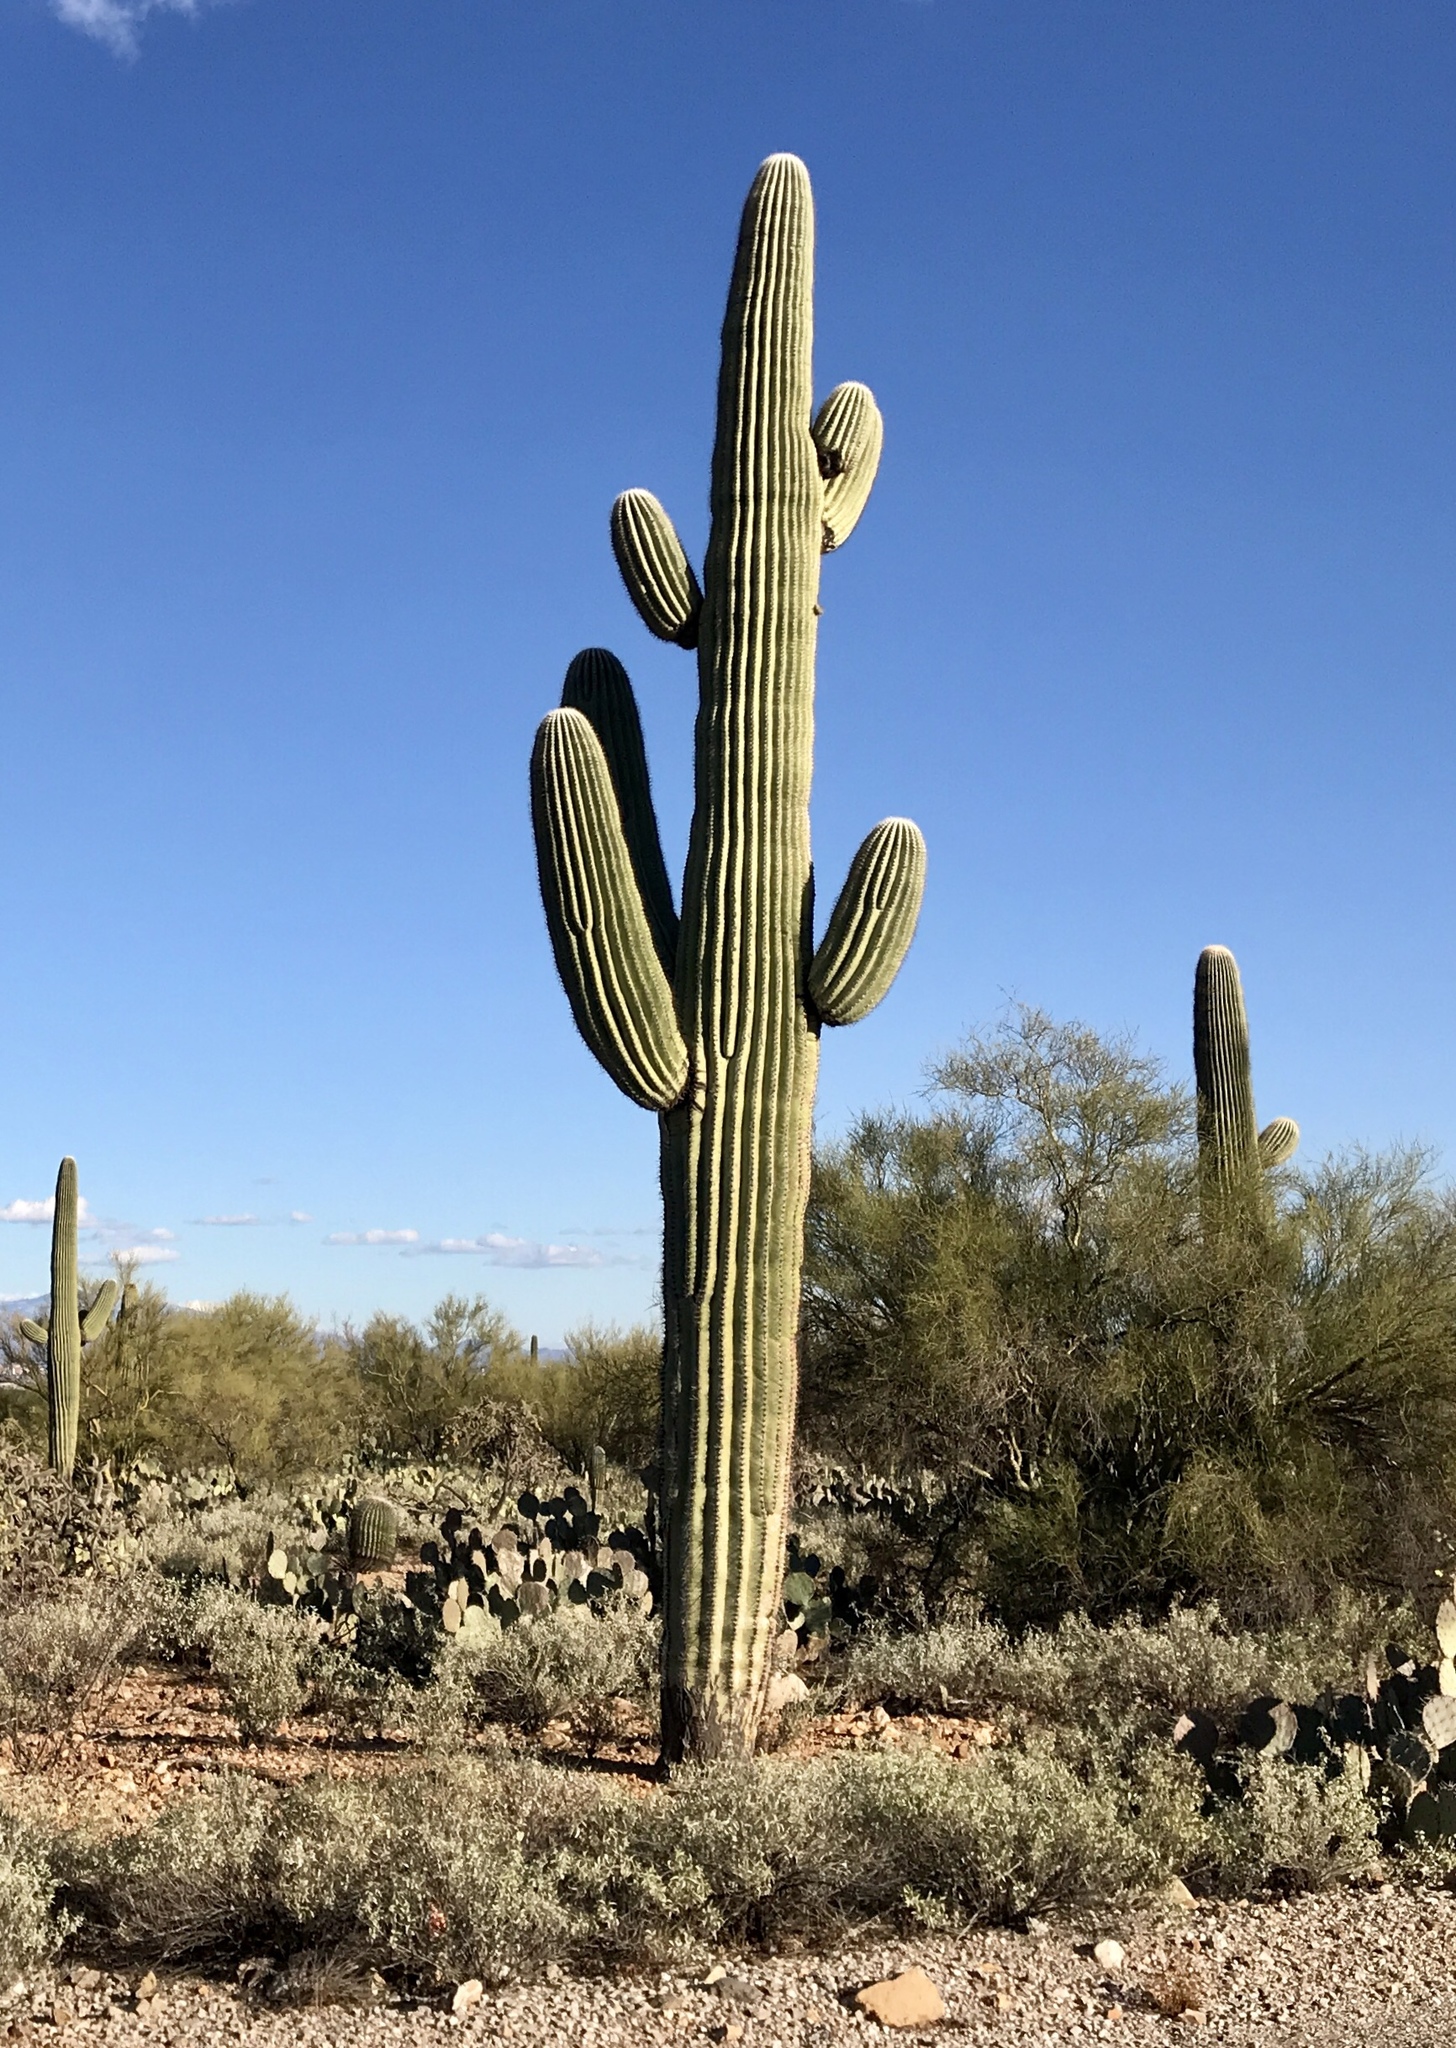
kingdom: Plantae
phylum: Tracheophyta
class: Magnoliopsida
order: Caryophyllales
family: Cactaceae
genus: Carnegiea
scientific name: Carnegiea gigantea
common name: Saguaro
